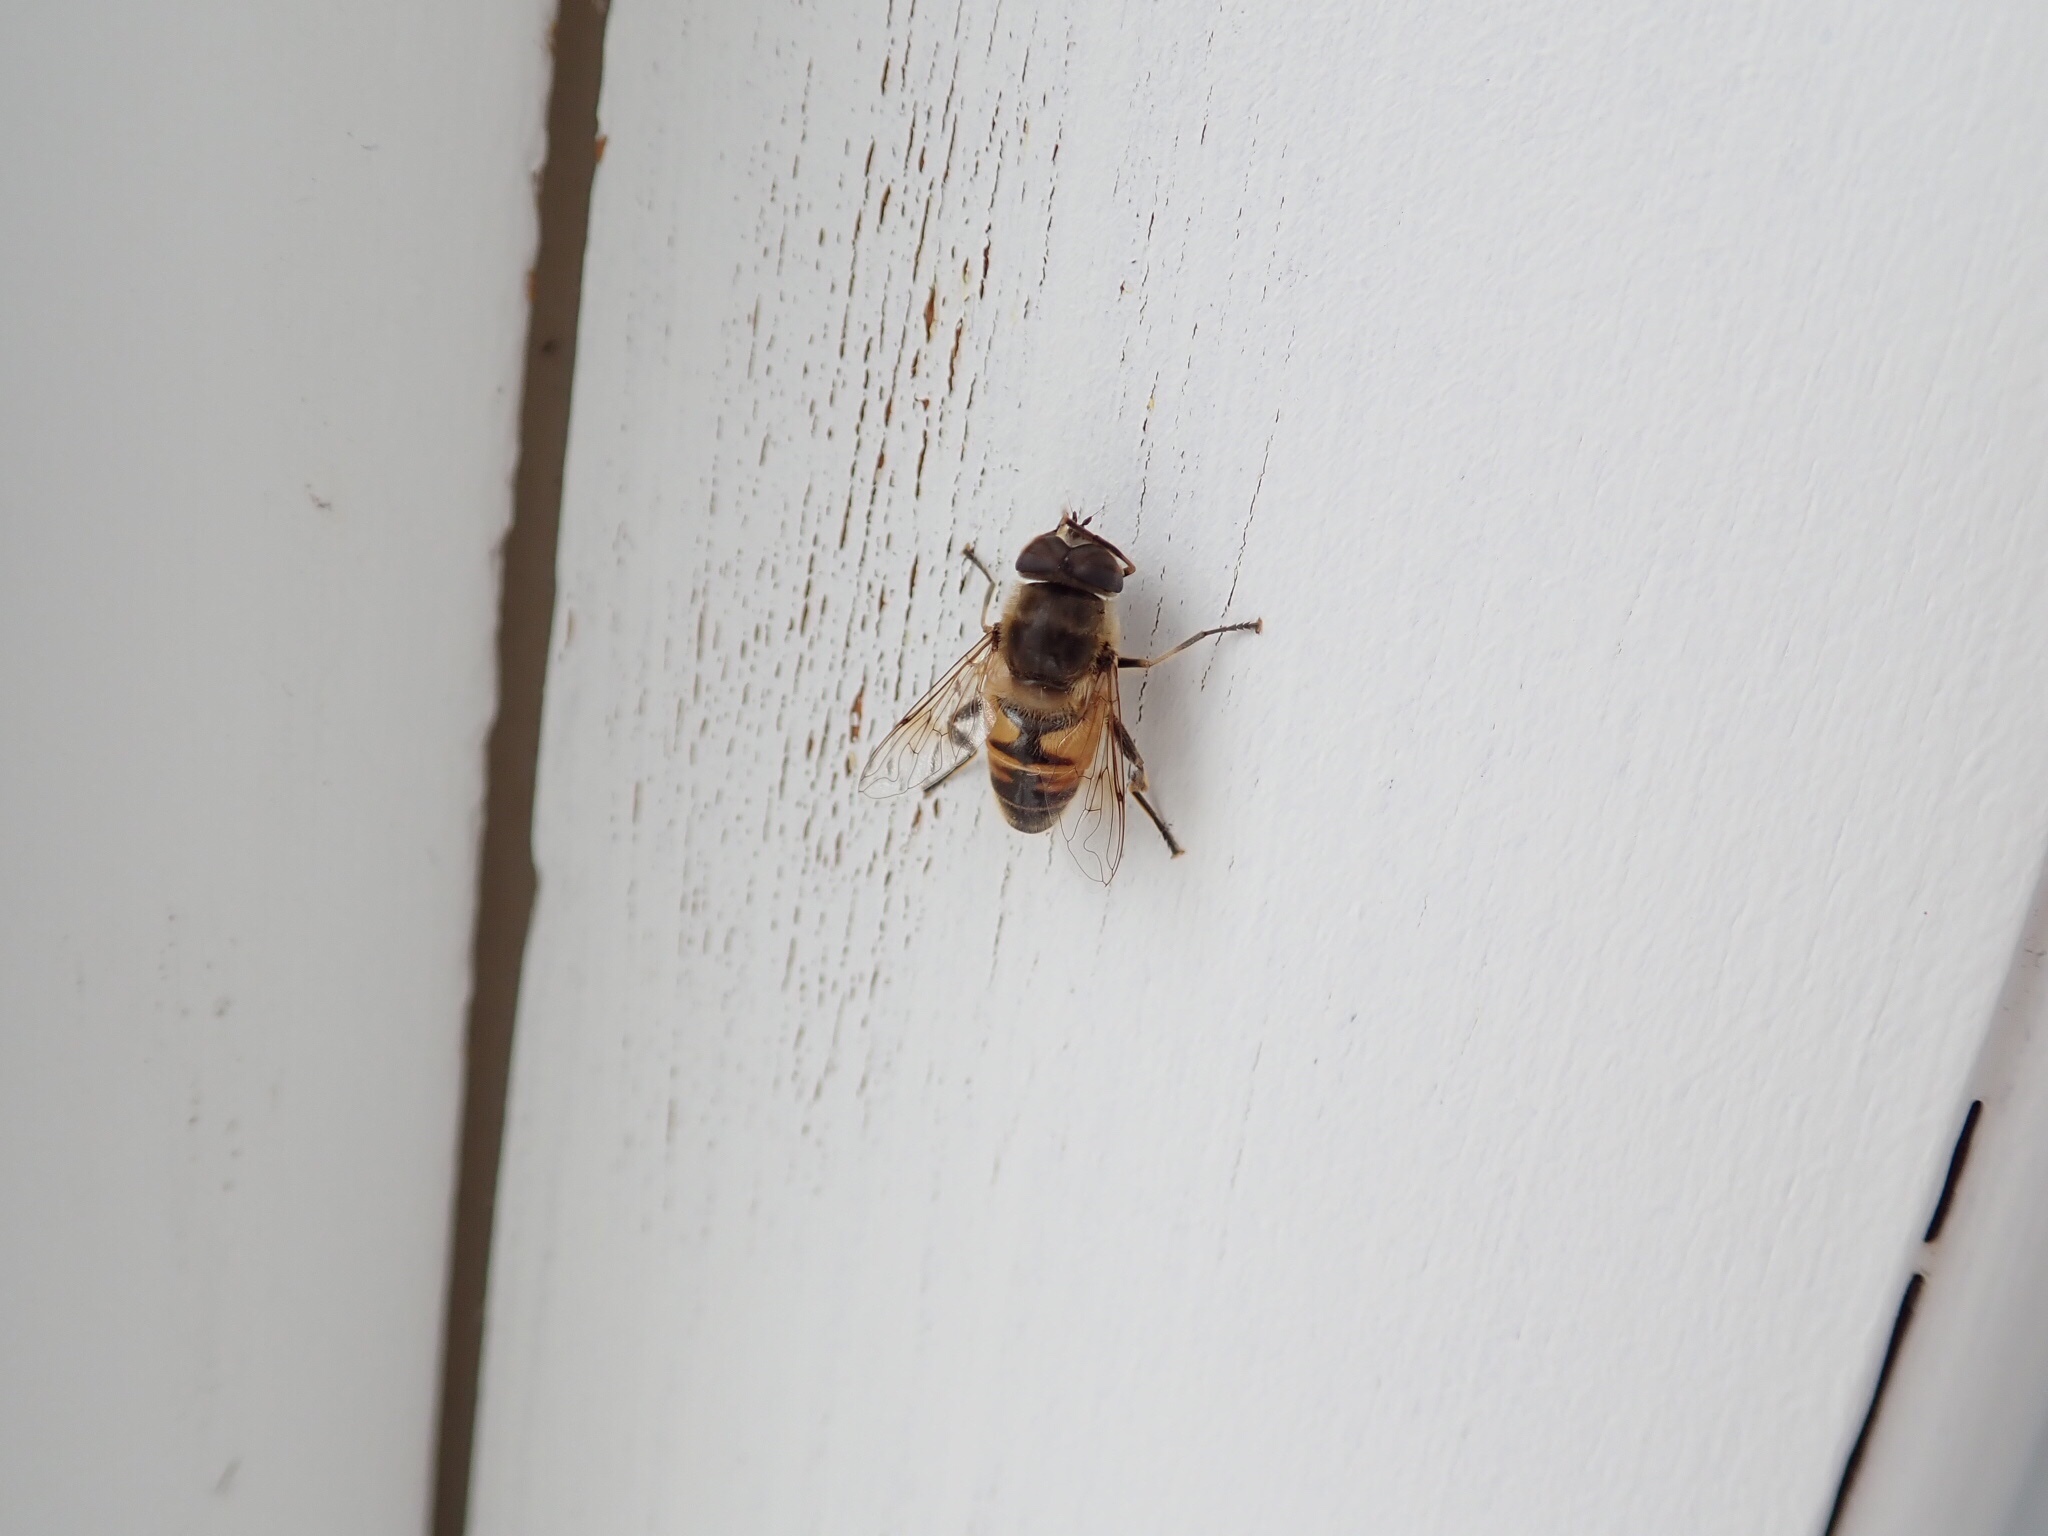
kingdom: Animalia
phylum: Arthropoda
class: Insecta
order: Diptera
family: Syrphidae
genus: Eristalis
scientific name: Eristalis tenax
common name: Drone fly
